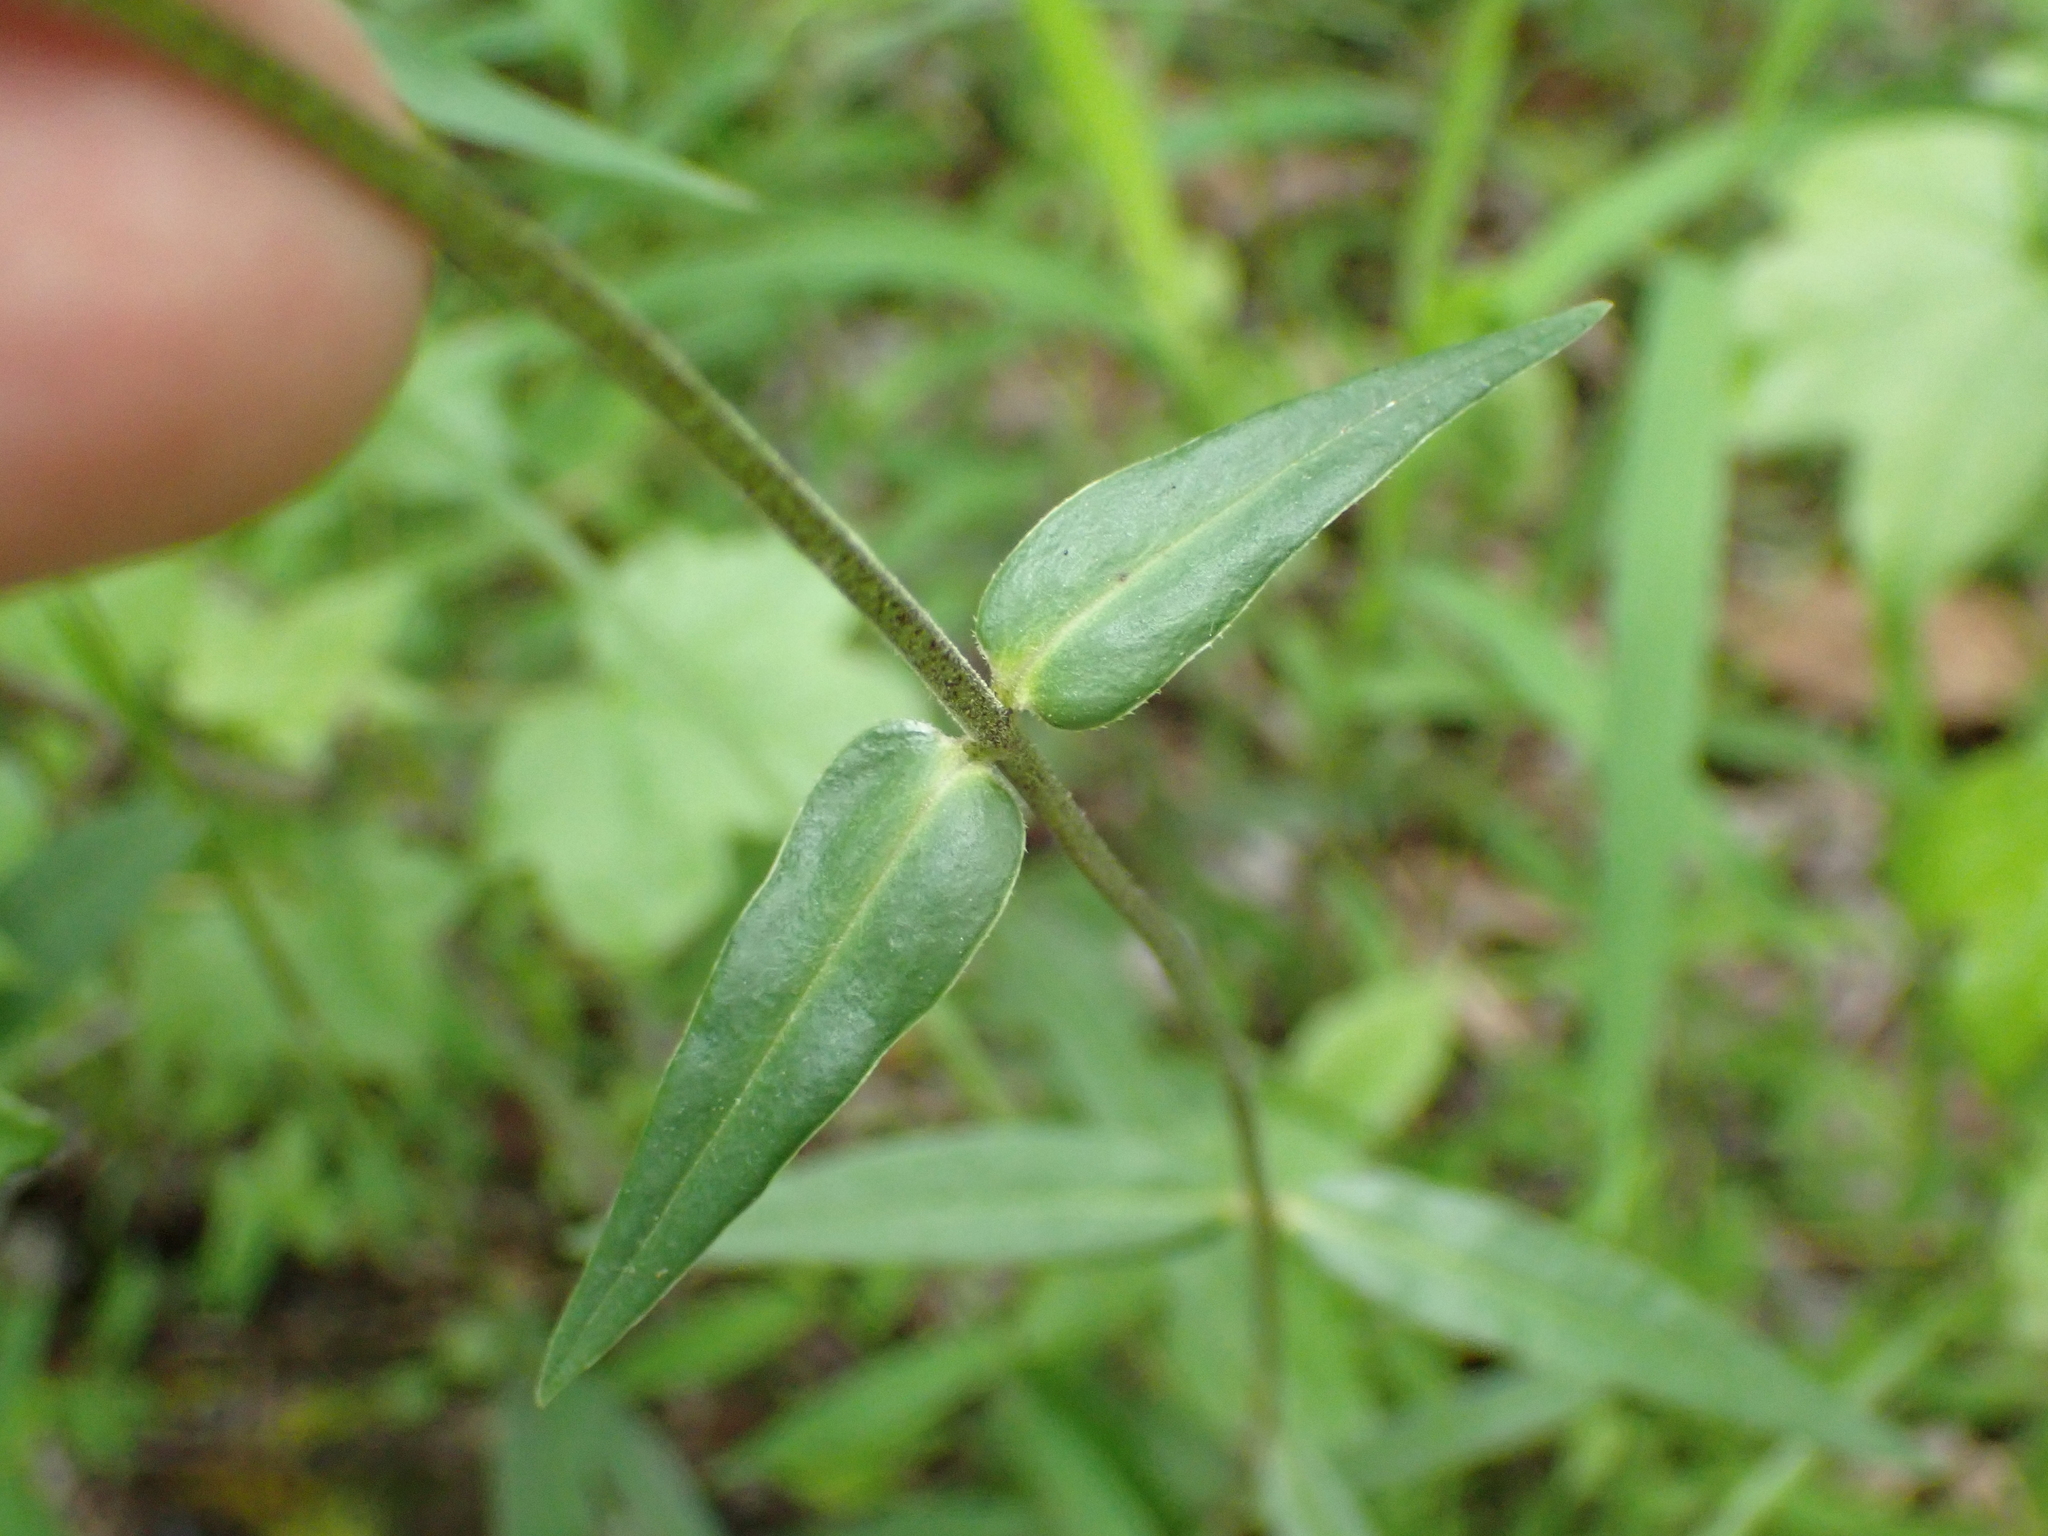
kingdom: Plantae
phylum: Tracheophyta
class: Magnoliopsida
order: Ericales
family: Polemoniaceae
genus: Phlox
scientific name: Phlox maculata
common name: Meadow phlox
